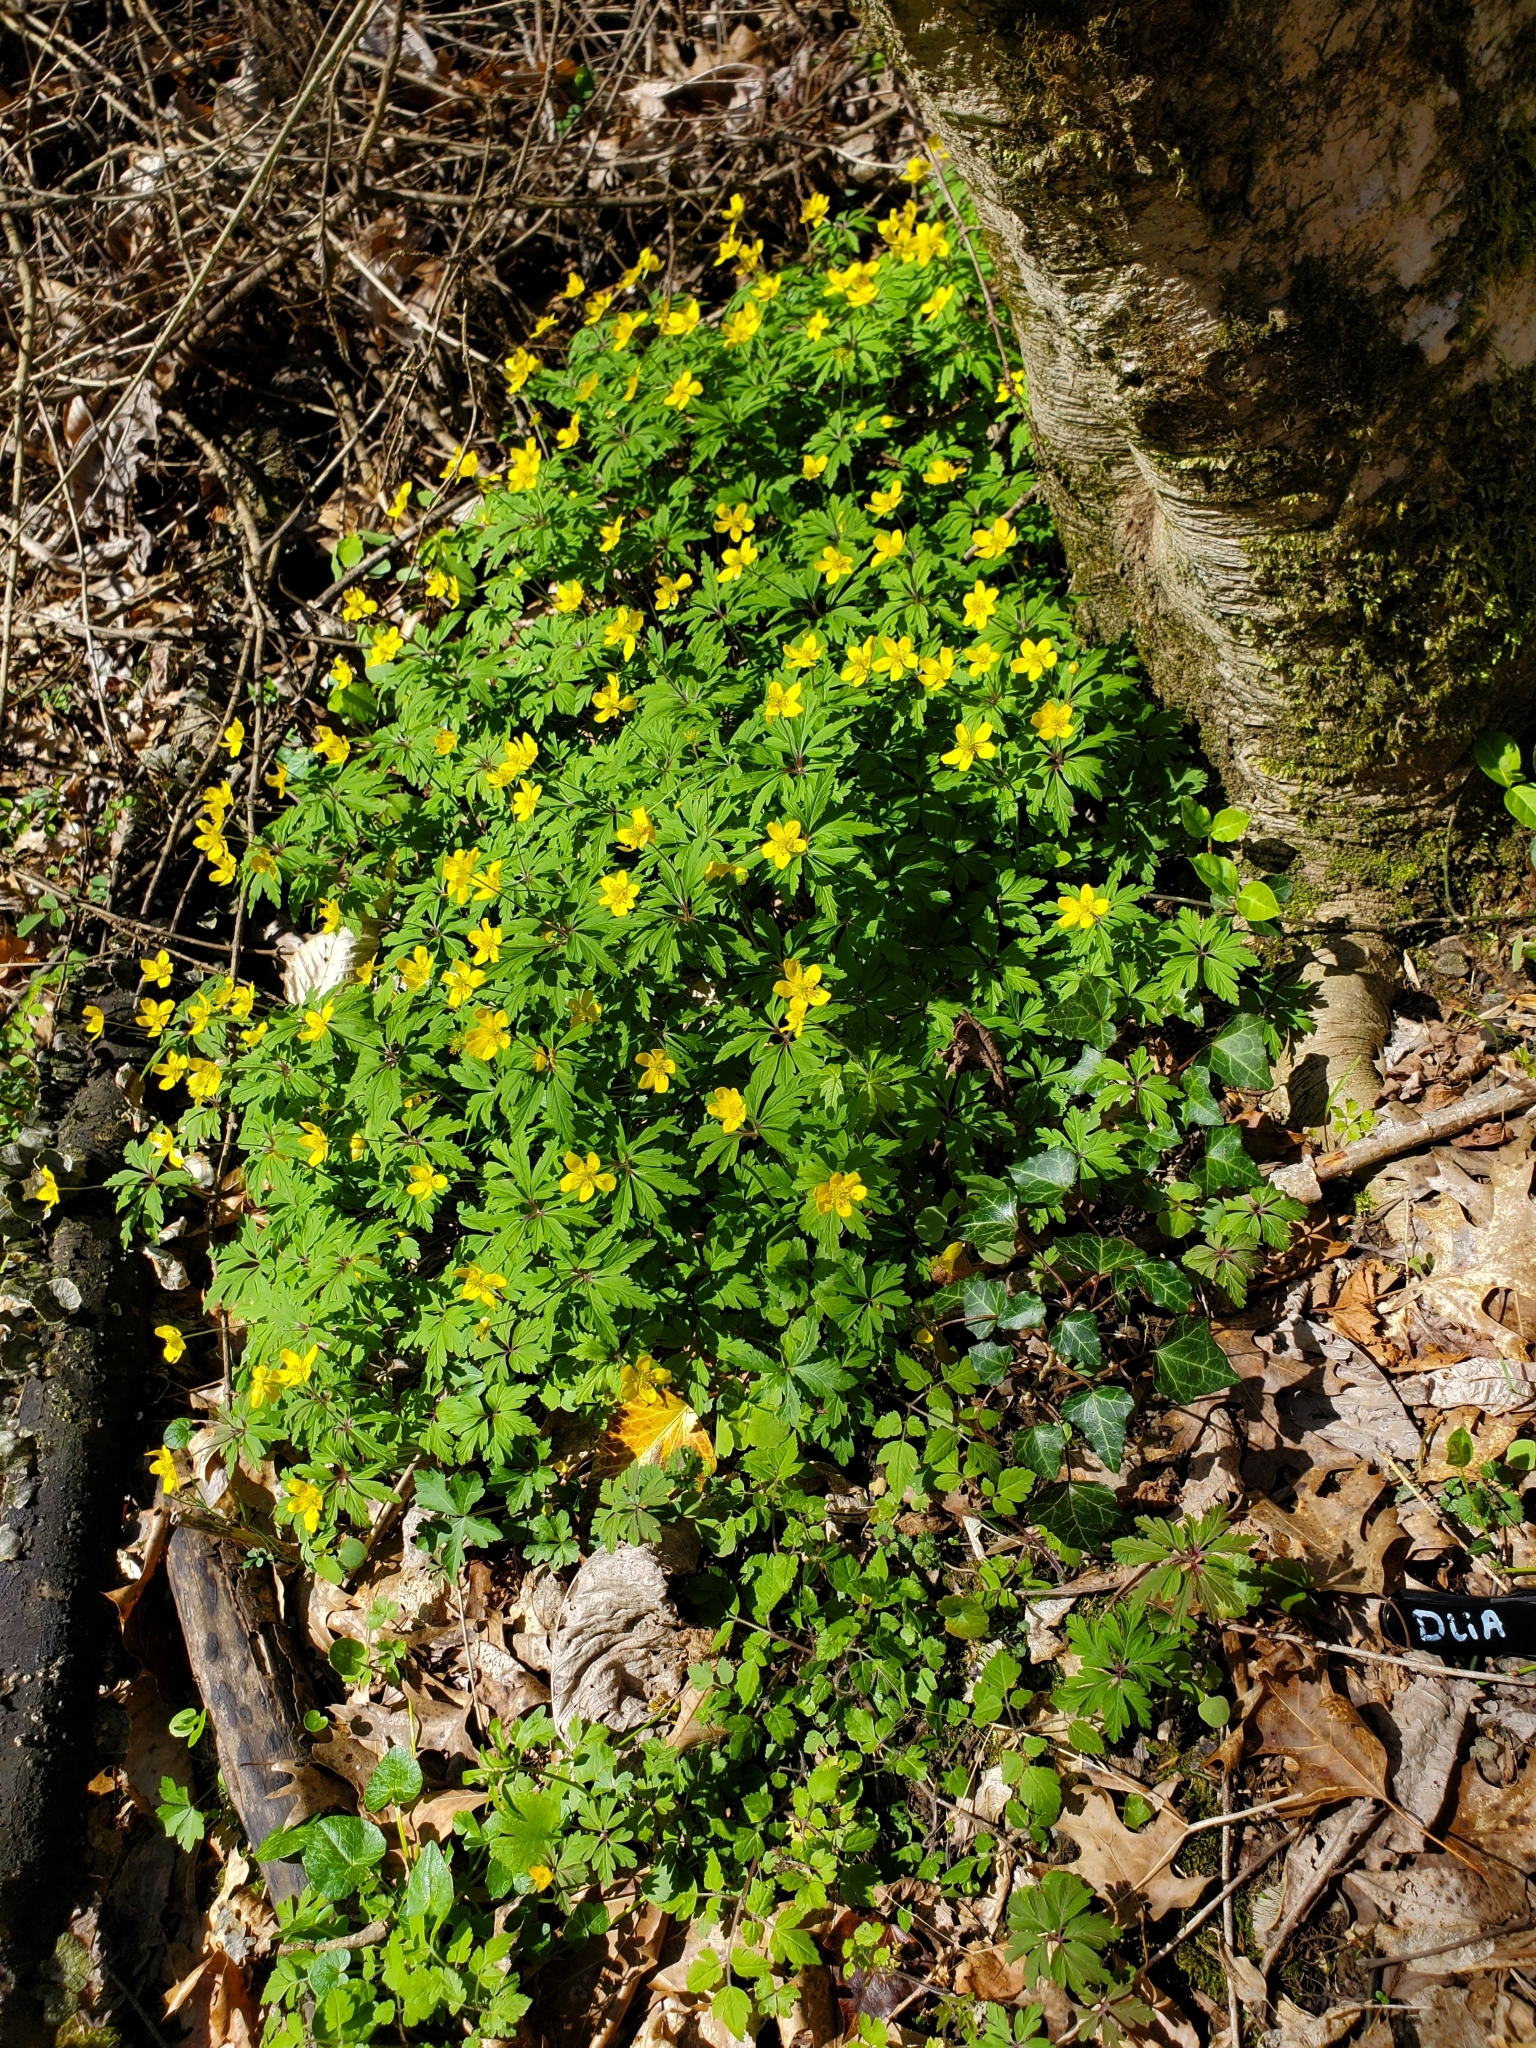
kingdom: Plantae
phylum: Tracheophyta
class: Magnoliopsida
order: Ranunculales
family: Ranunculaceae
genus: Anemone
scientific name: Anemone ranunculoides
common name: Yellow anemone
